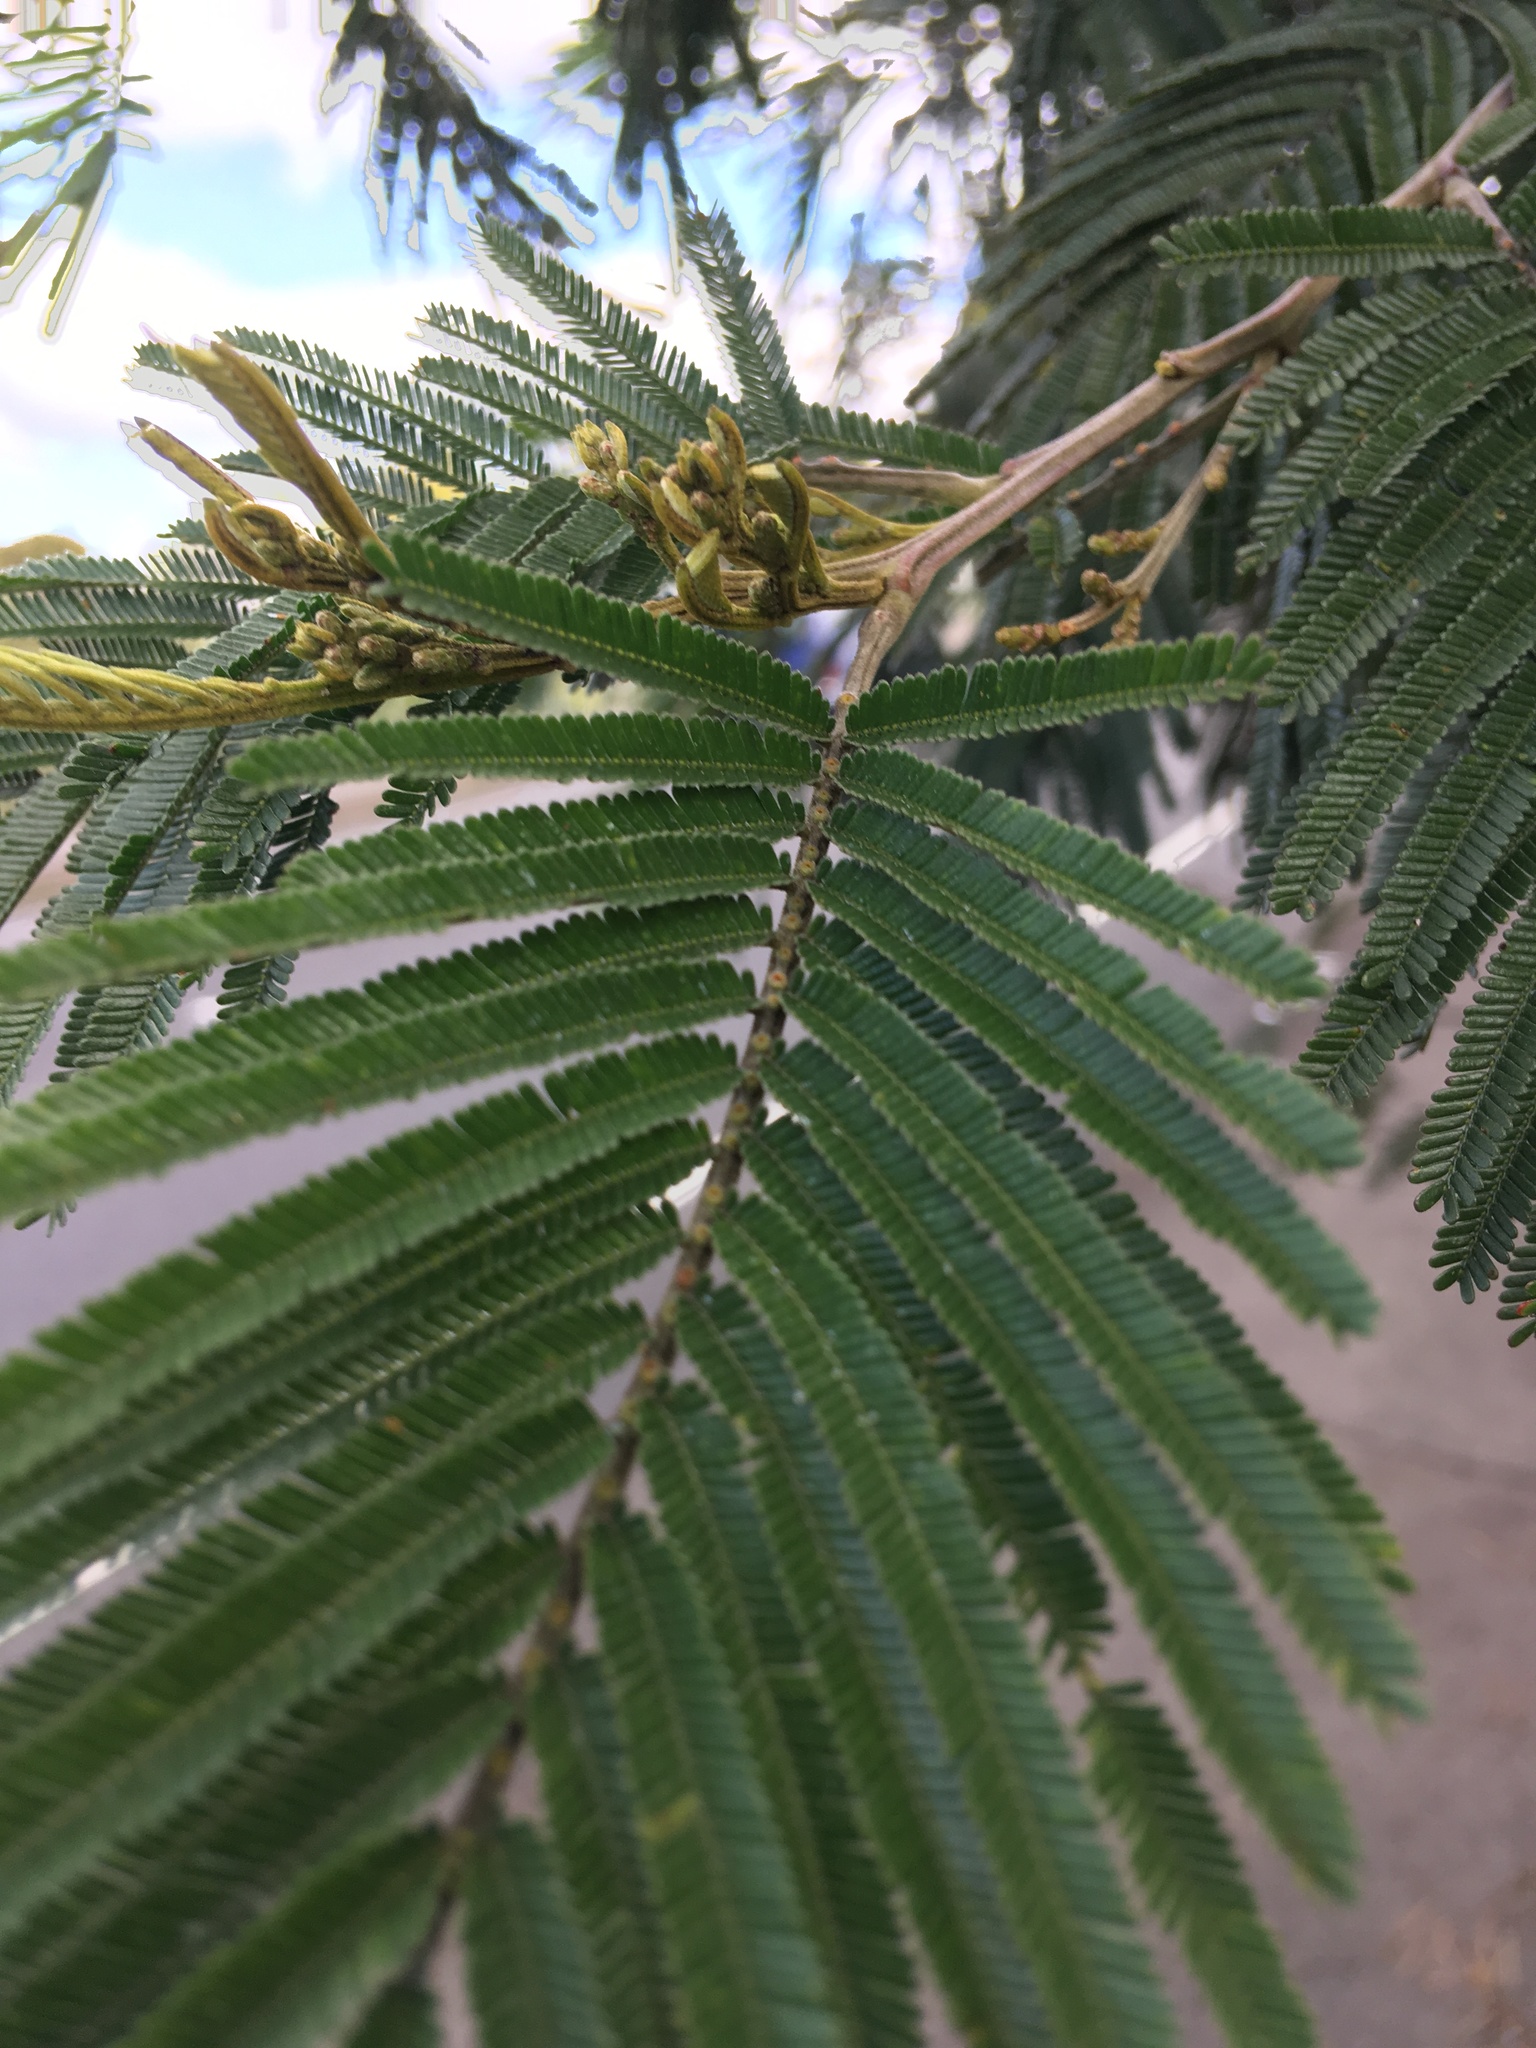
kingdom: Plantae
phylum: Tracheophyta
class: Magnoliopsida
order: Fabales
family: Fabaceae
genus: Acacia
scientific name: Acacia mearnsii
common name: Black wattle
